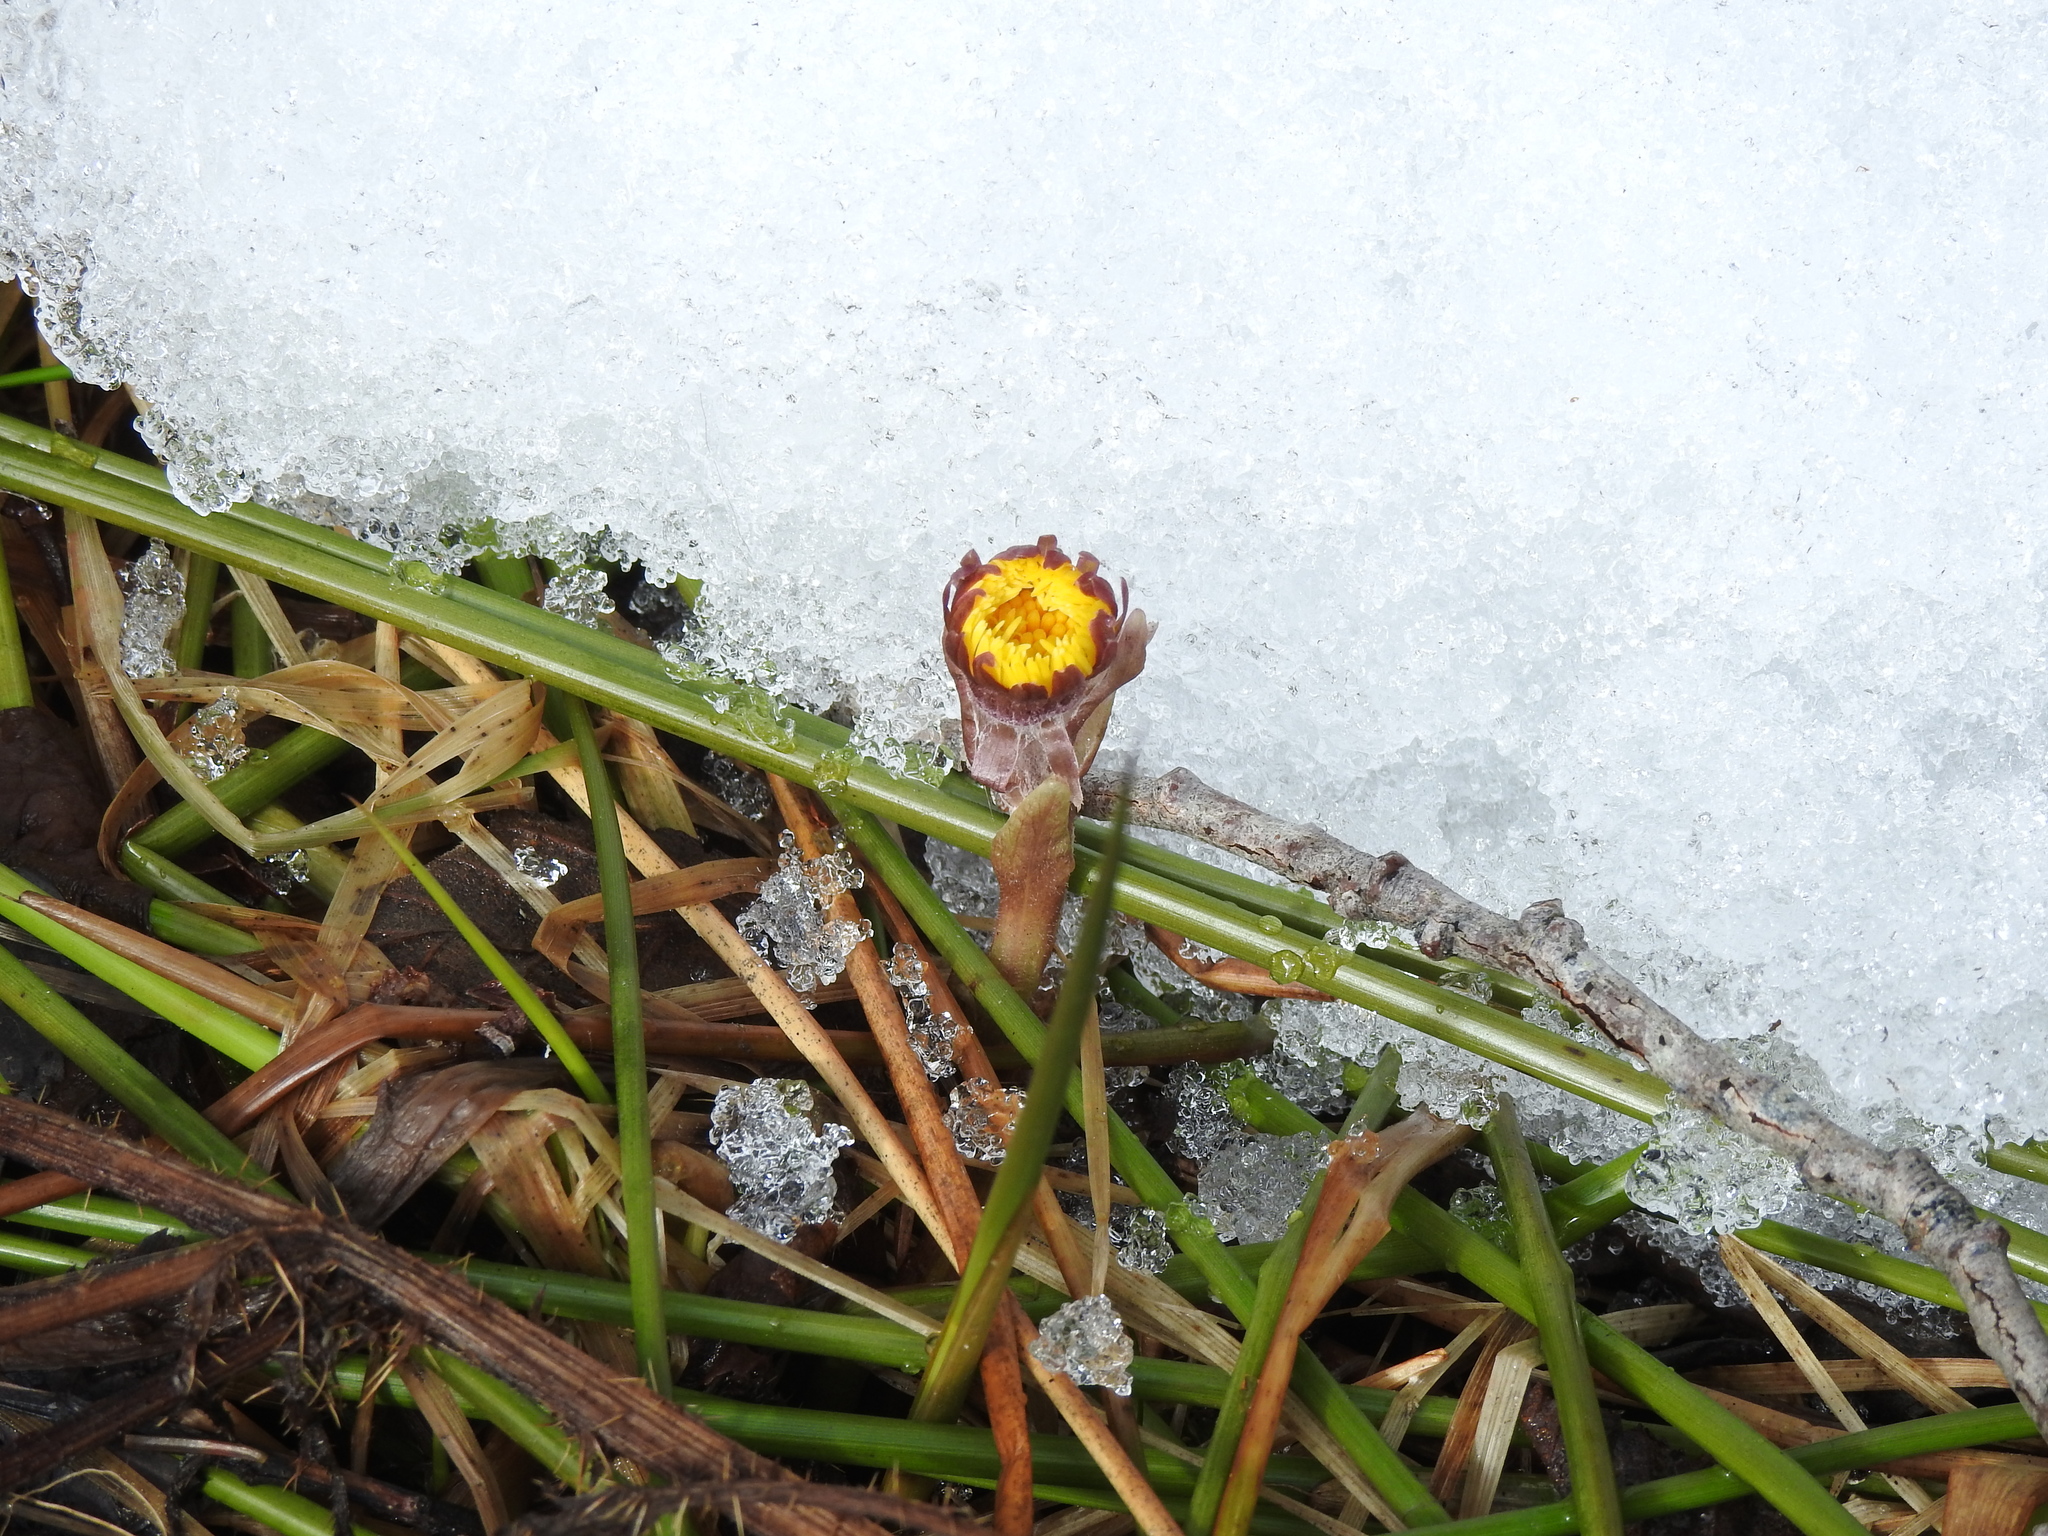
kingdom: Plantae
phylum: Tracheophyta
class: Magnoliopsida
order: Asterales
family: Asteraceae
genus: Tussilago
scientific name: Tussilago farfara
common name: Coltsfoot
